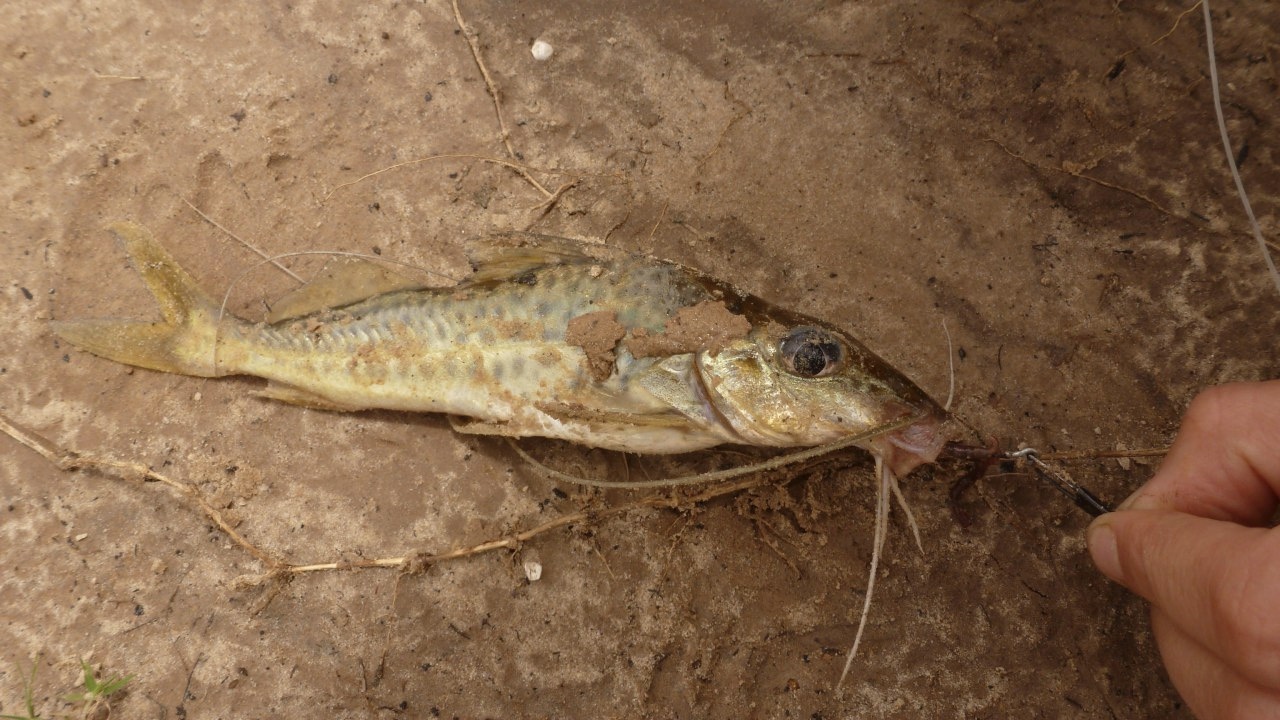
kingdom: Animalia
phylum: Chordata
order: Siluriformes
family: Pimelodidae
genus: Iheringichthys
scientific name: Iheringichthys labrosus
